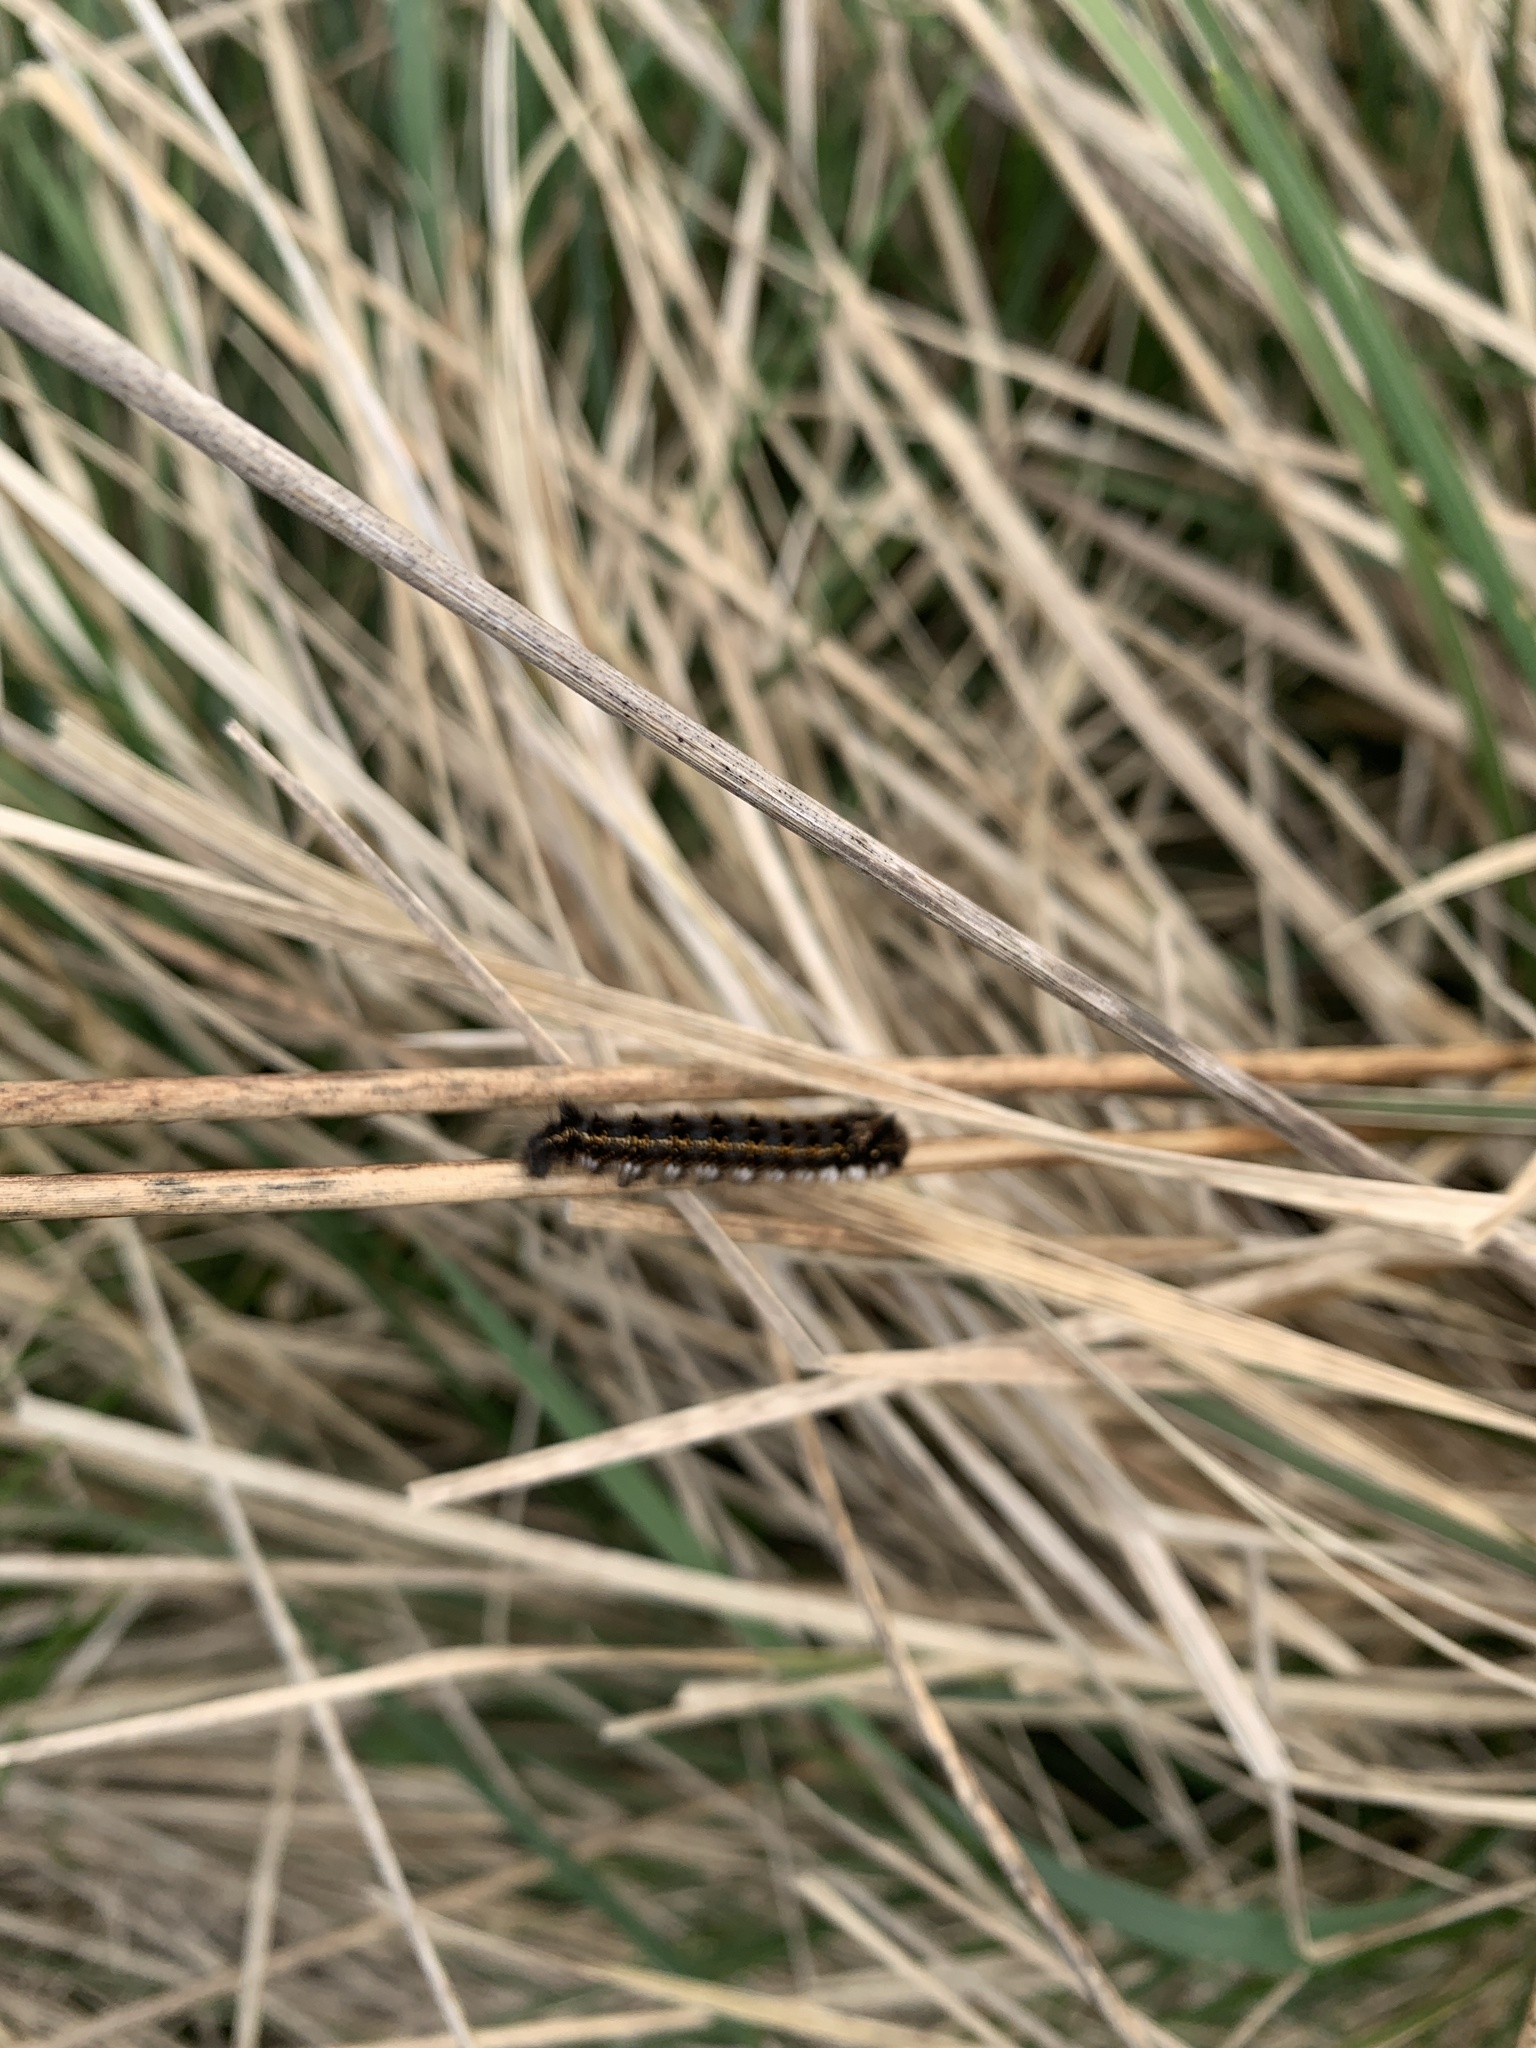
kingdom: Animalia
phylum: Arthropoda
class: Insecta
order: Lepidoptera
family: Lasiocampidae
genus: Euthrix
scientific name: Euthrix potatoria
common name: Drinker
